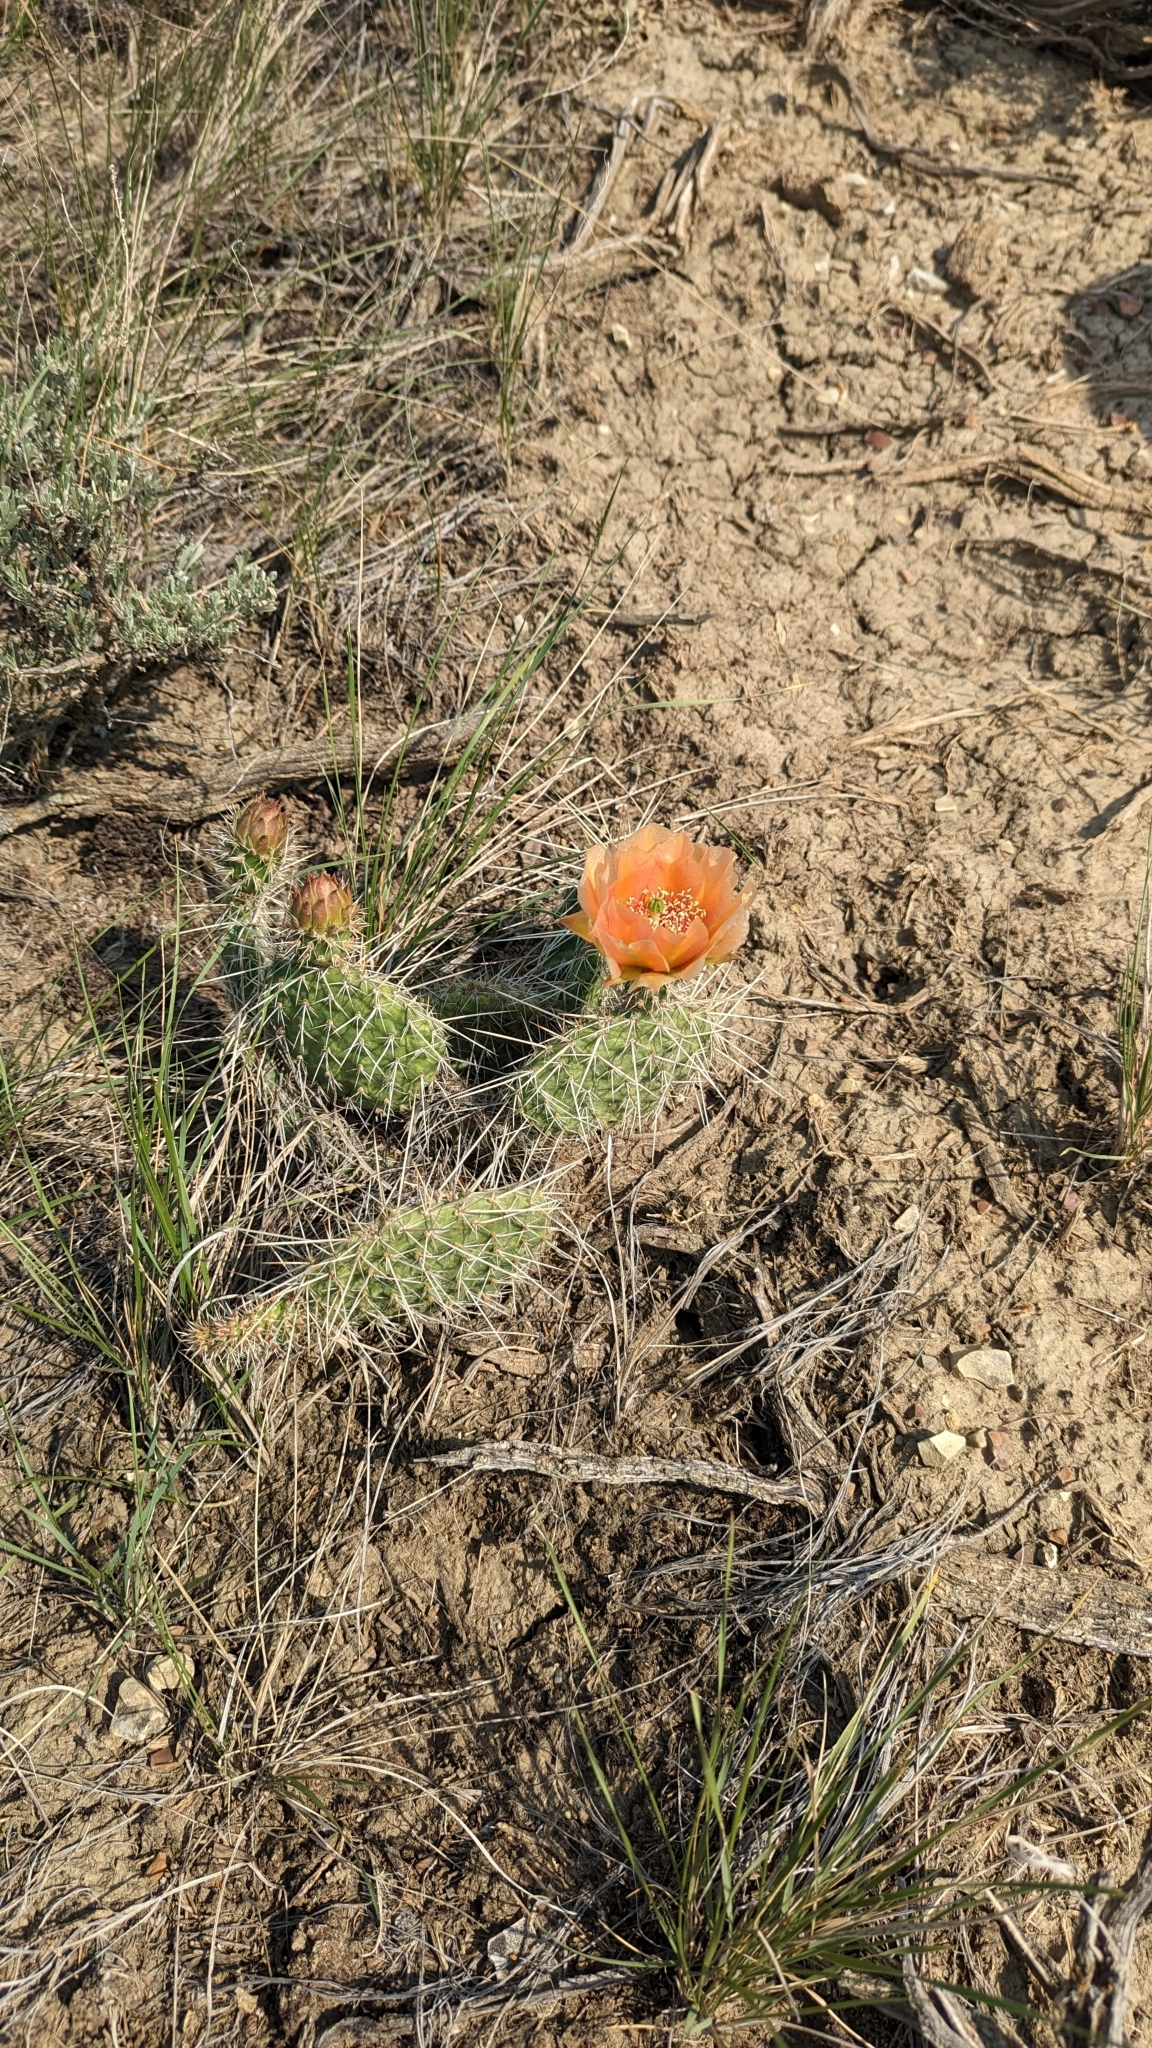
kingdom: Plantae
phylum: Tracheophyta
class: Magnoliopsida
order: Caryophyllales
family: Cactaceae
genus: Opuntia
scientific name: Opuntia polyacantha
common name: Plains prickly-pear
